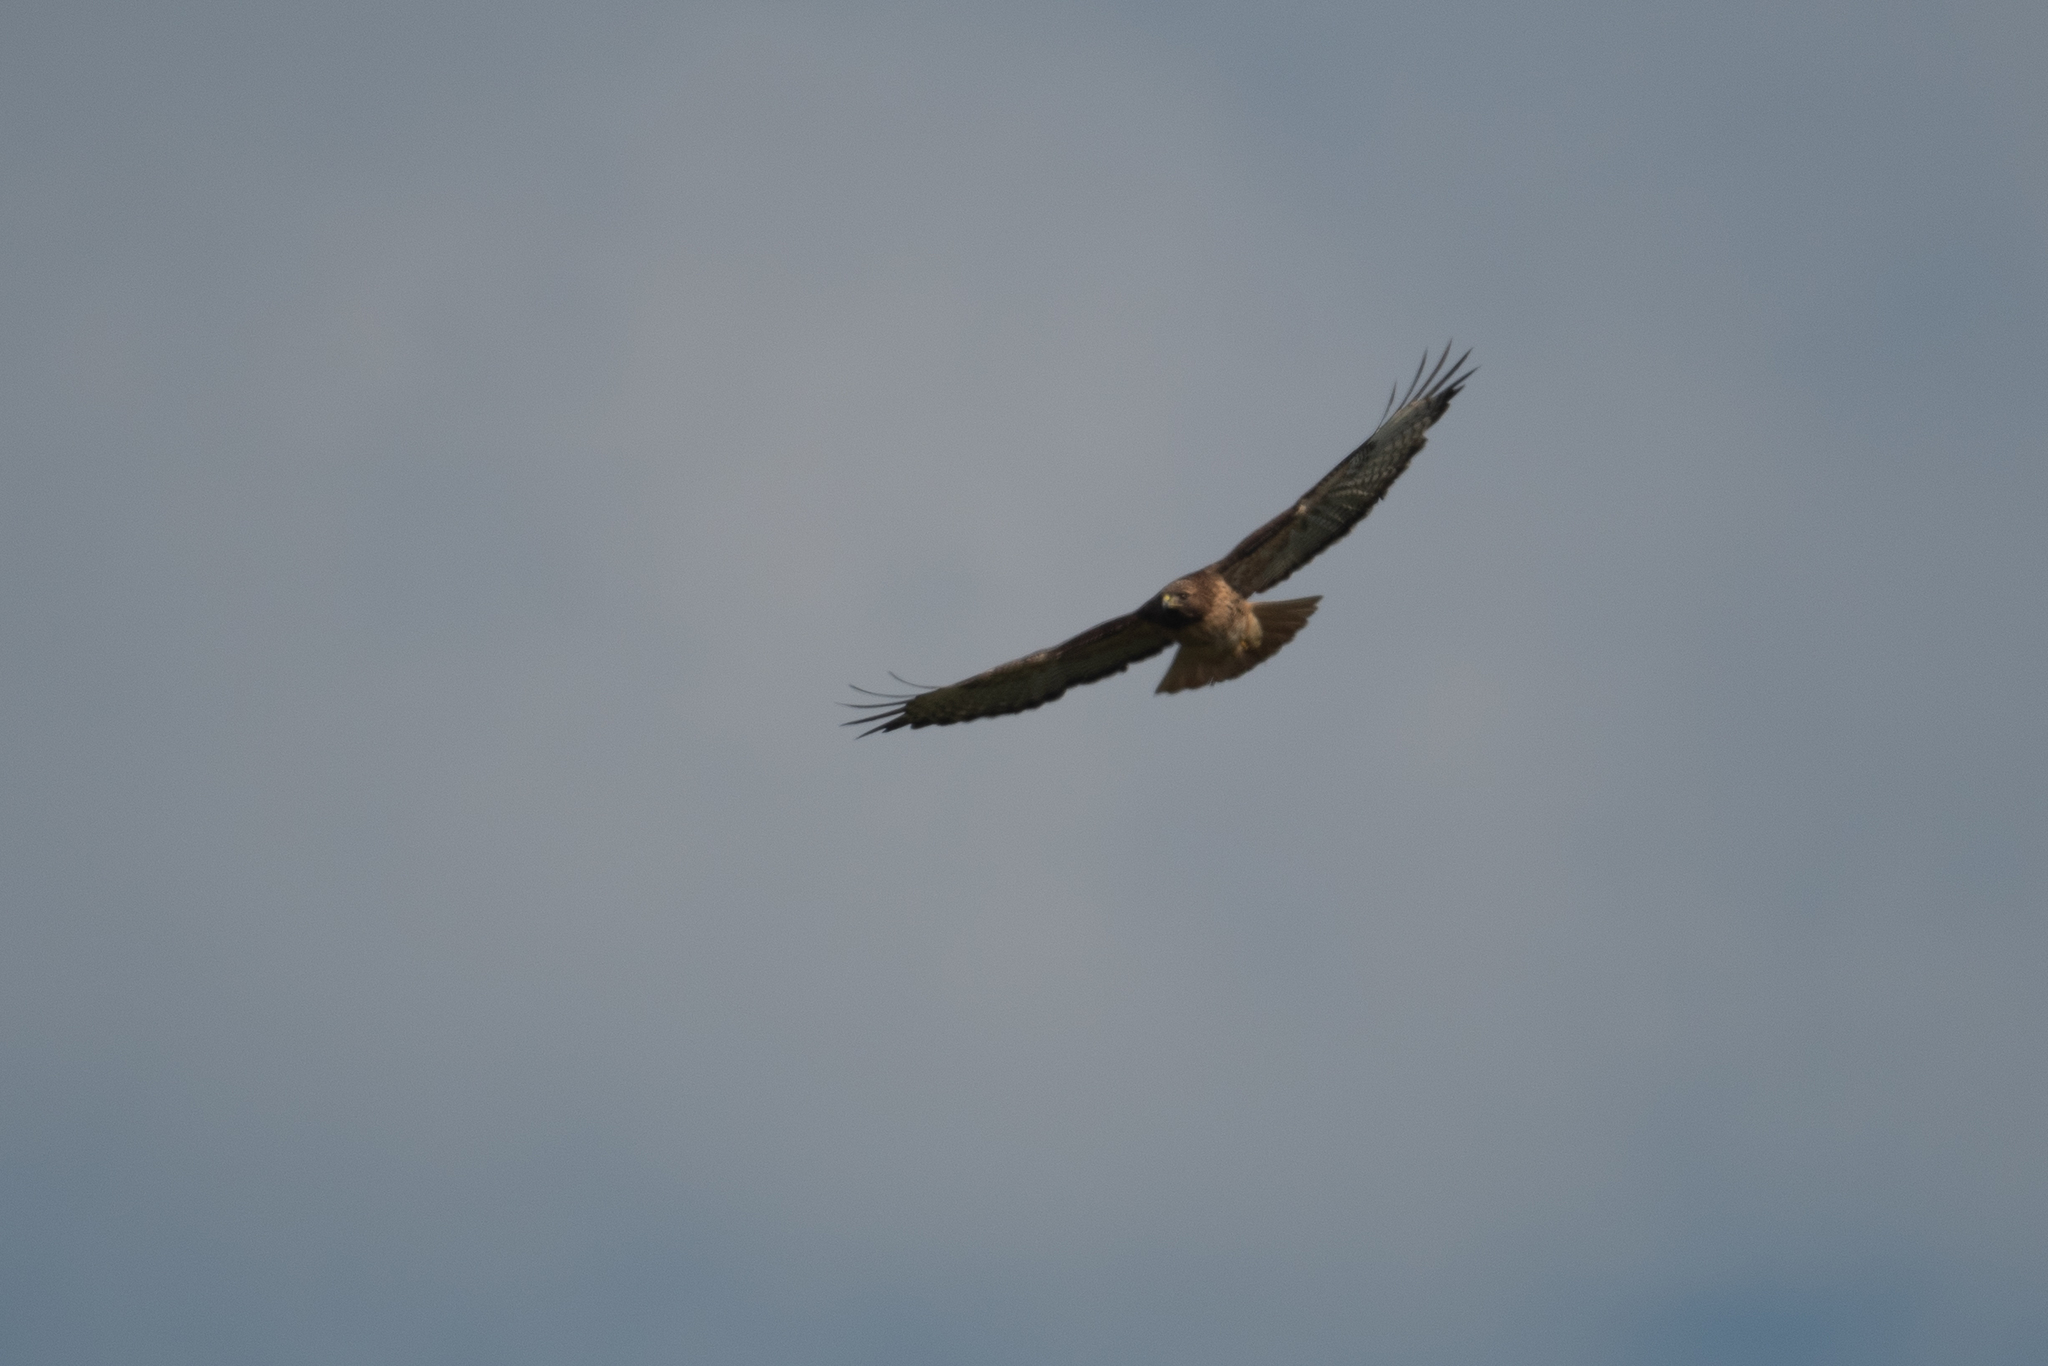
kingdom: Animalia
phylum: Chordata
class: Aves
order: Accipitriformes
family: Accipitridae
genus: Buteo
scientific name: Buteo jamaicensis
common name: Red-tailed hawk
